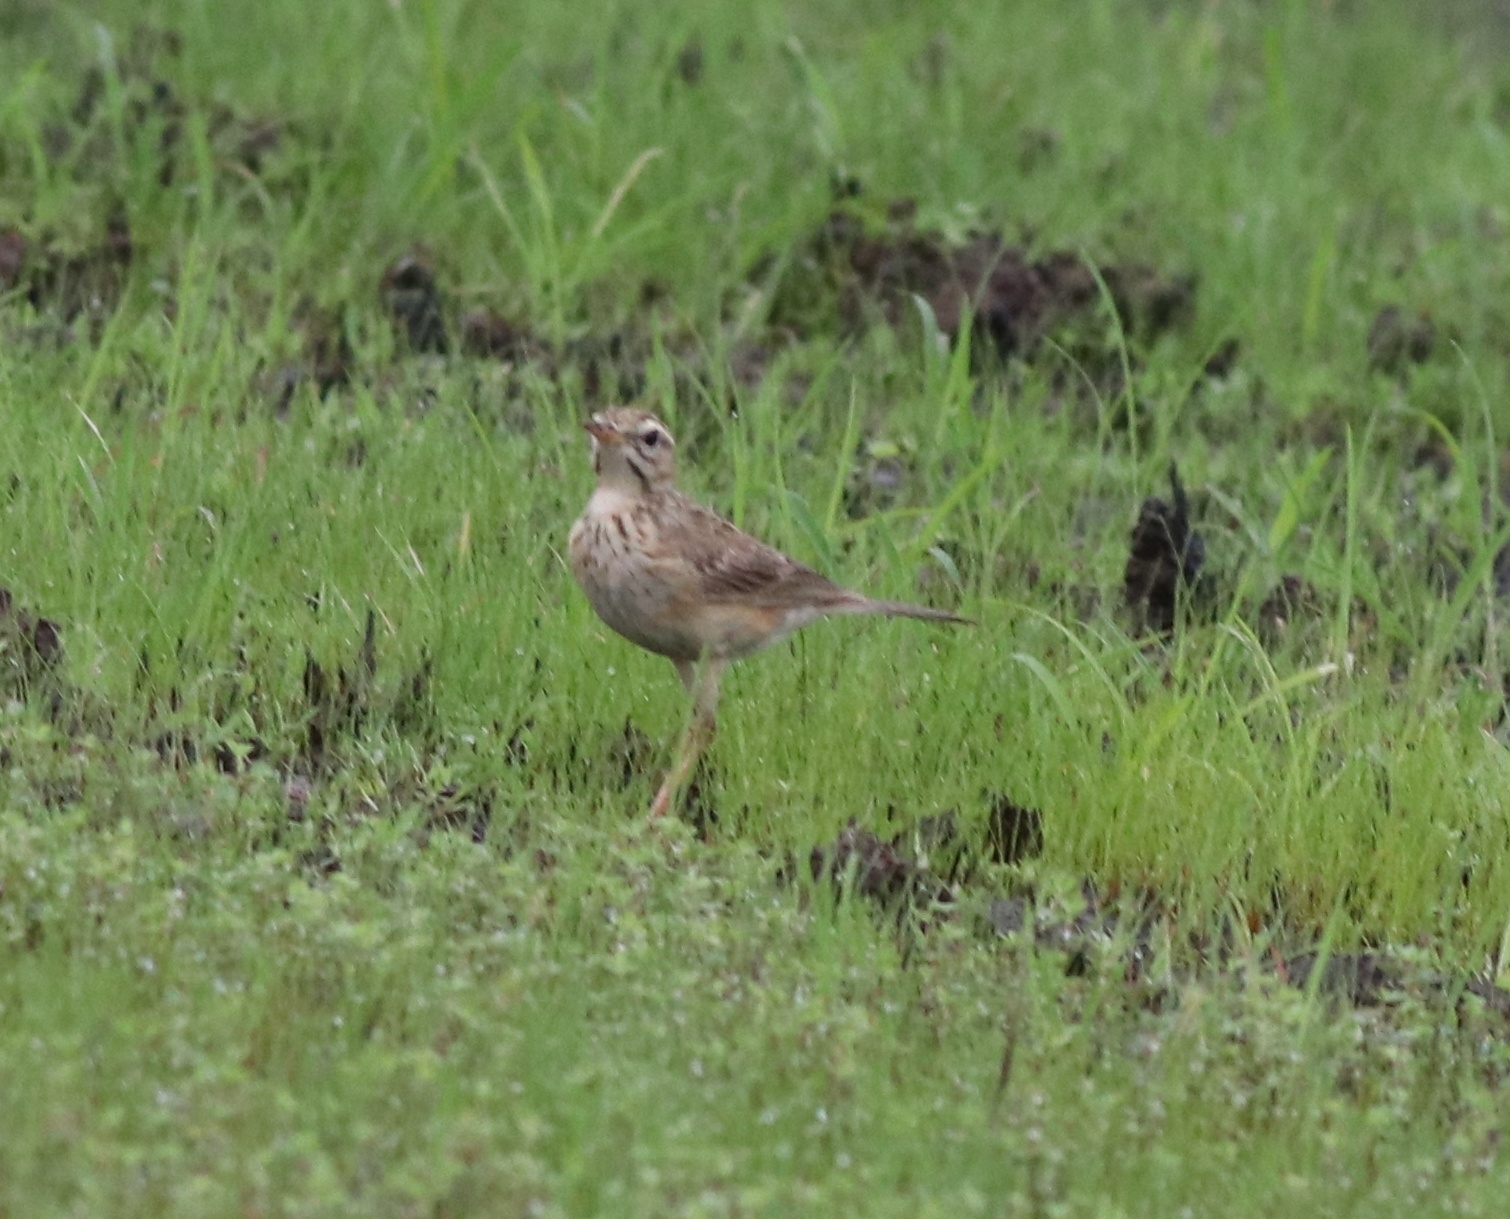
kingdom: Animalia
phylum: Chordata
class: Aves
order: Passeriformes
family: Motacillidae
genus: Anthus
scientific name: Anthus rufulus
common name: Paddyfield pipit
